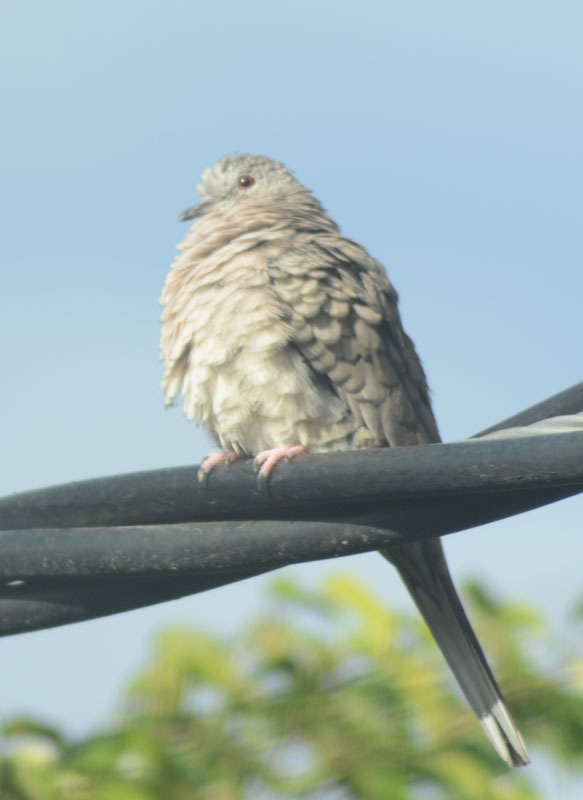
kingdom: Animalia
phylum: Chordata
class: Aves
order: Columbiformes
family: Columbidae
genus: Columbina
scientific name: Columbina inca
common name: Inca dove
